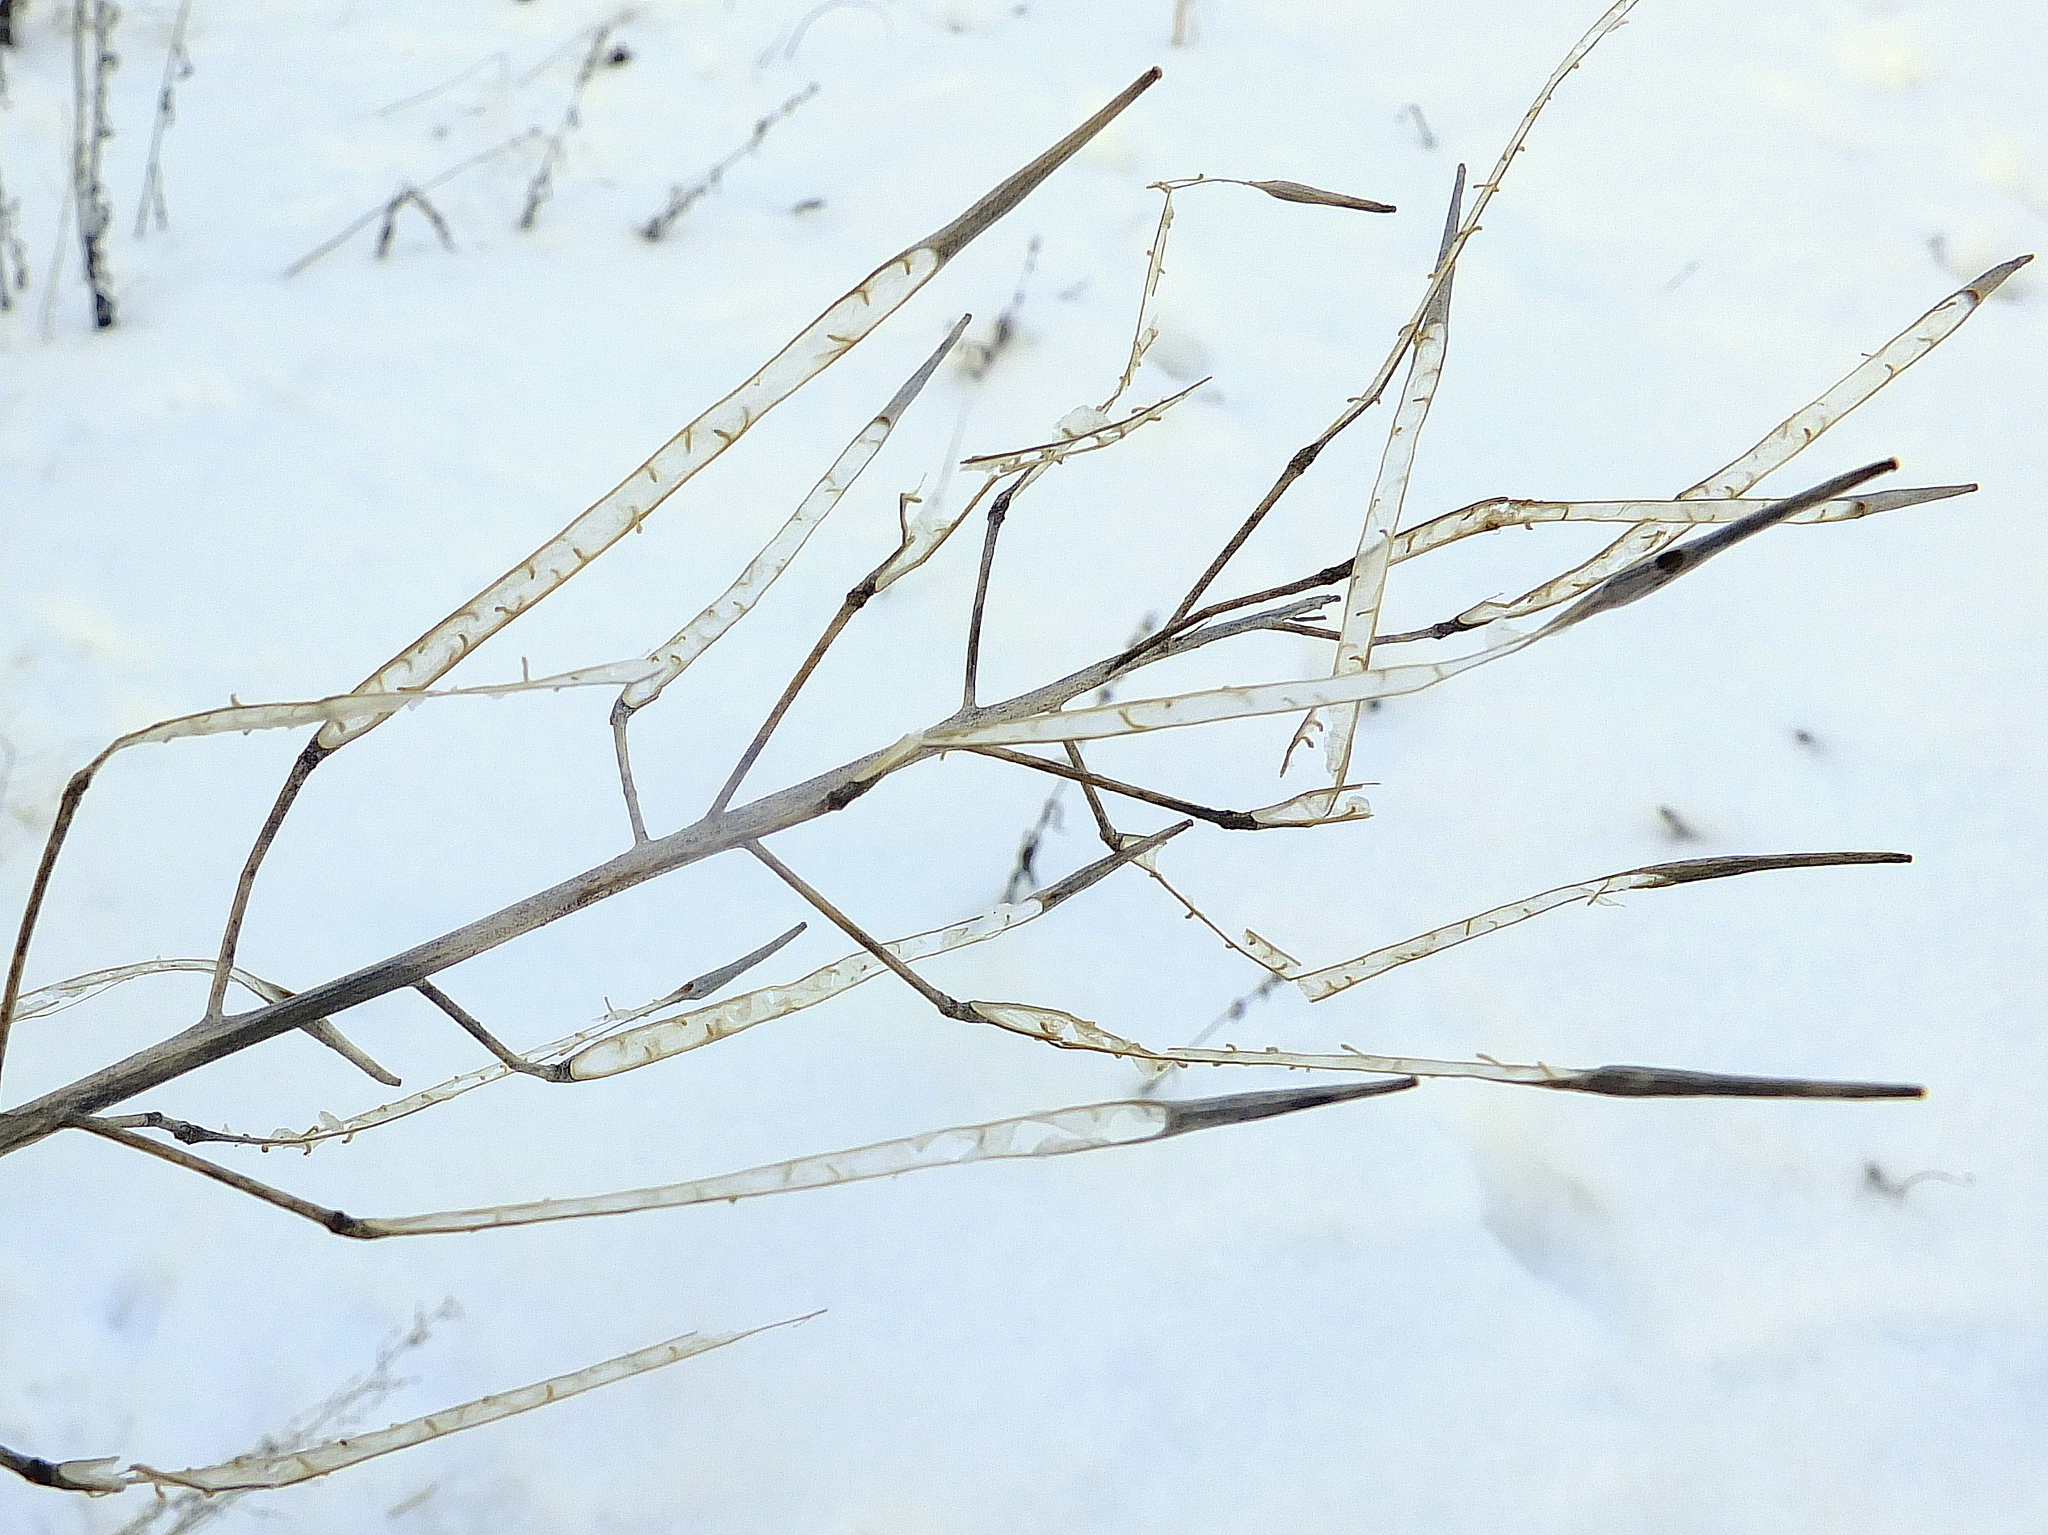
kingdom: Plantae
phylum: Tracheophyta
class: Magnoliopsida
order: Brassicales
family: Brassicaceae
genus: Barbarea
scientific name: Barbarea vulgaris
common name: Cressy-greens
